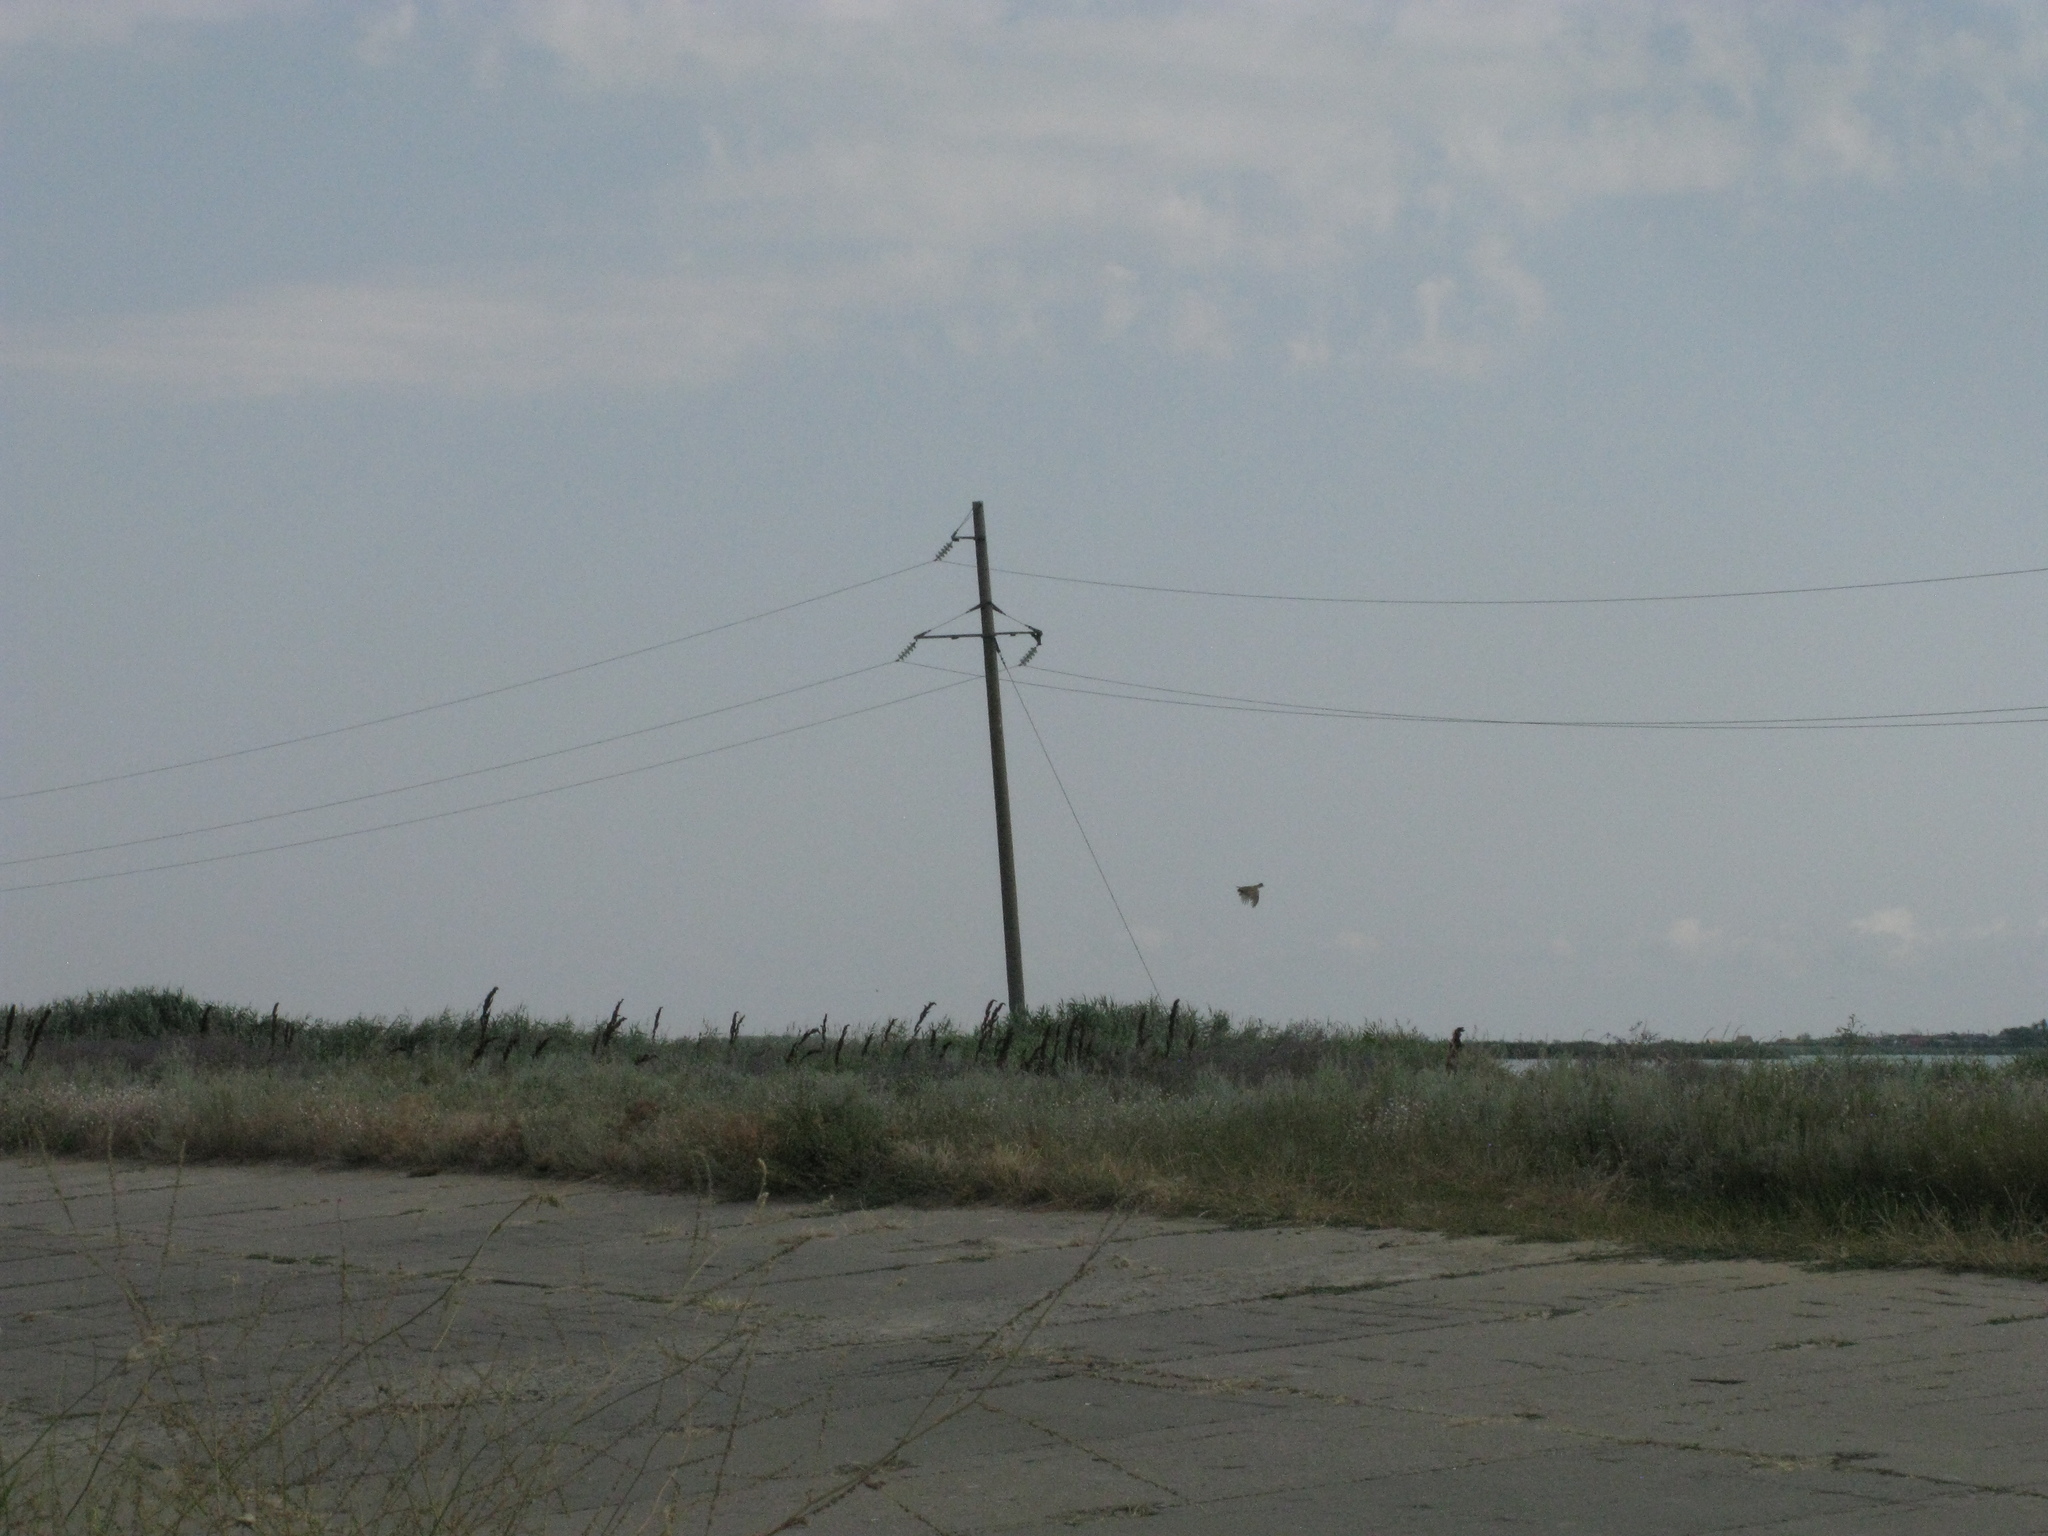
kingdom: Animalia
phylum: Chordata
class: Aves
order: Galliformes
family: Phasianidae
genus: Phasianus
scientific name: Phasianus colchicus
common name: Common pheasant
